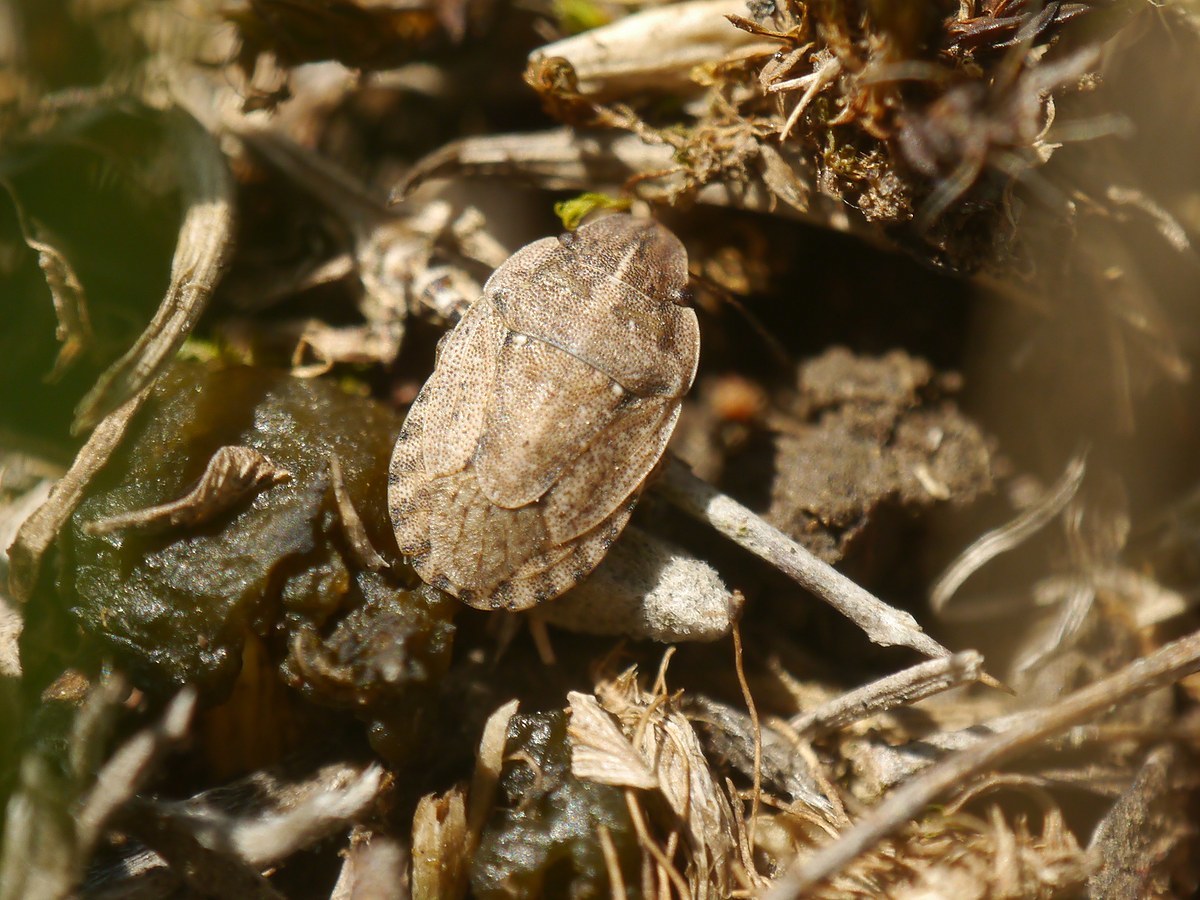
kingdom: Animalia
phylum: Arthropoda
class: Insecta
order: Hemiptera
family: Pentatomidae
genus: Sciocoris
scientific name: Sciocoris cursitans
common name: Sandrunner
